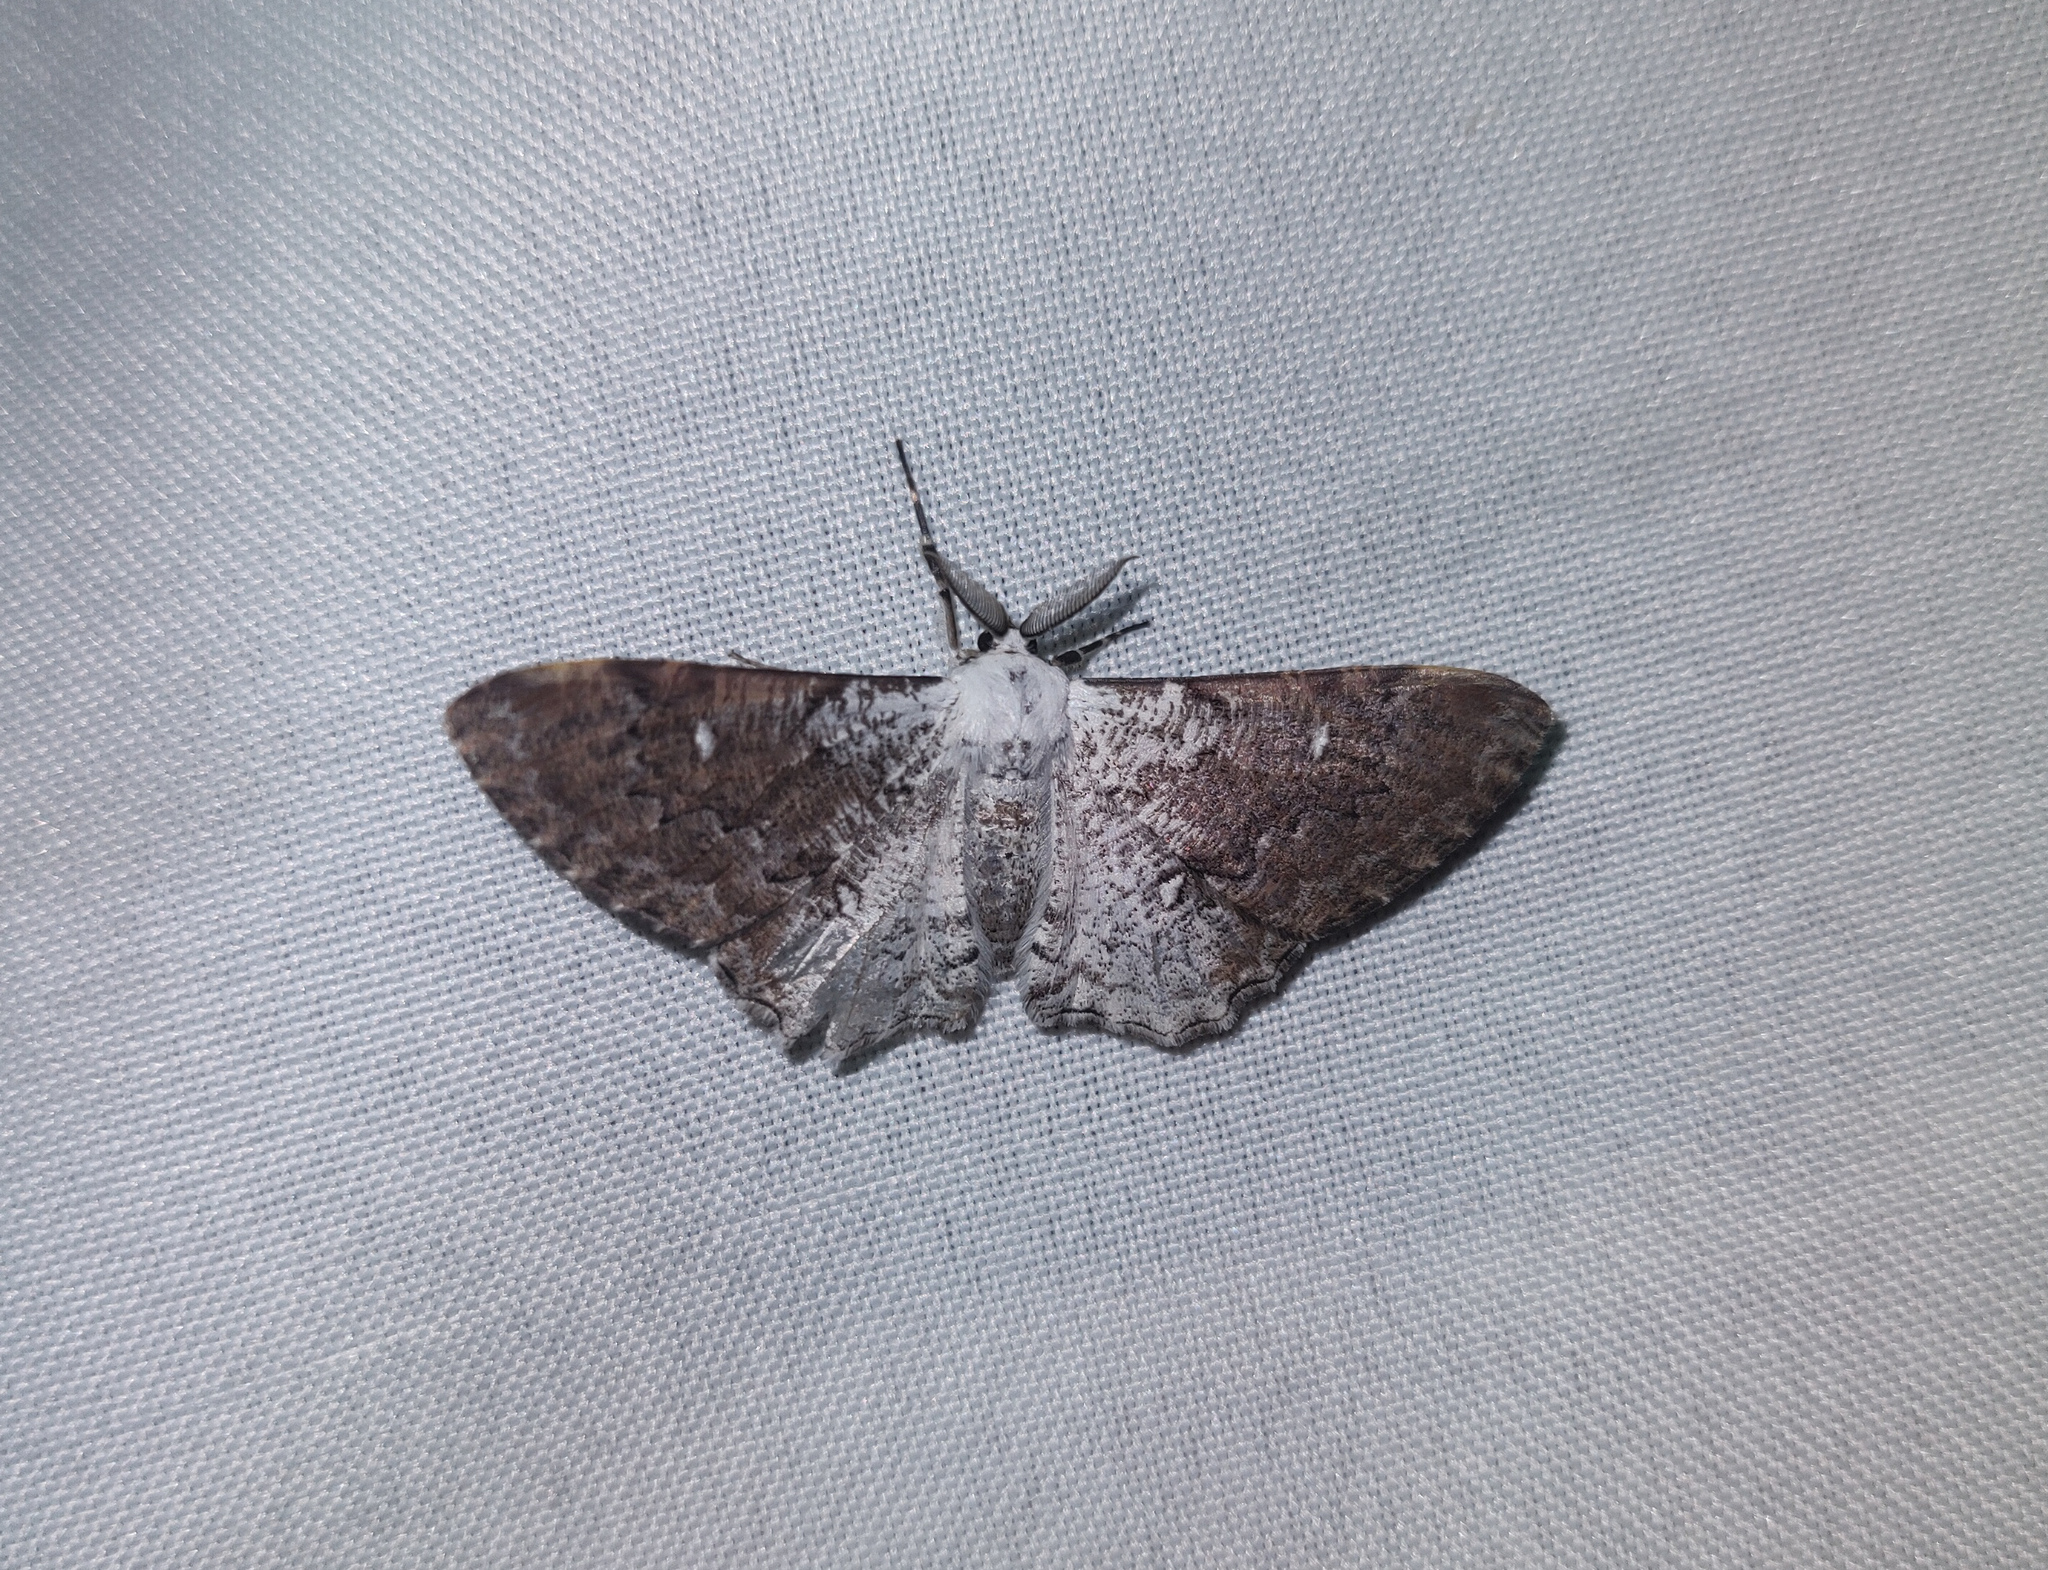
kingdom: Animalia
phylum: Arthropoda
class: Insecta
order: Lepidoptera
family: Geometridae
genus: Thyrinteina
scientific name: Thyrinteina arnobia
